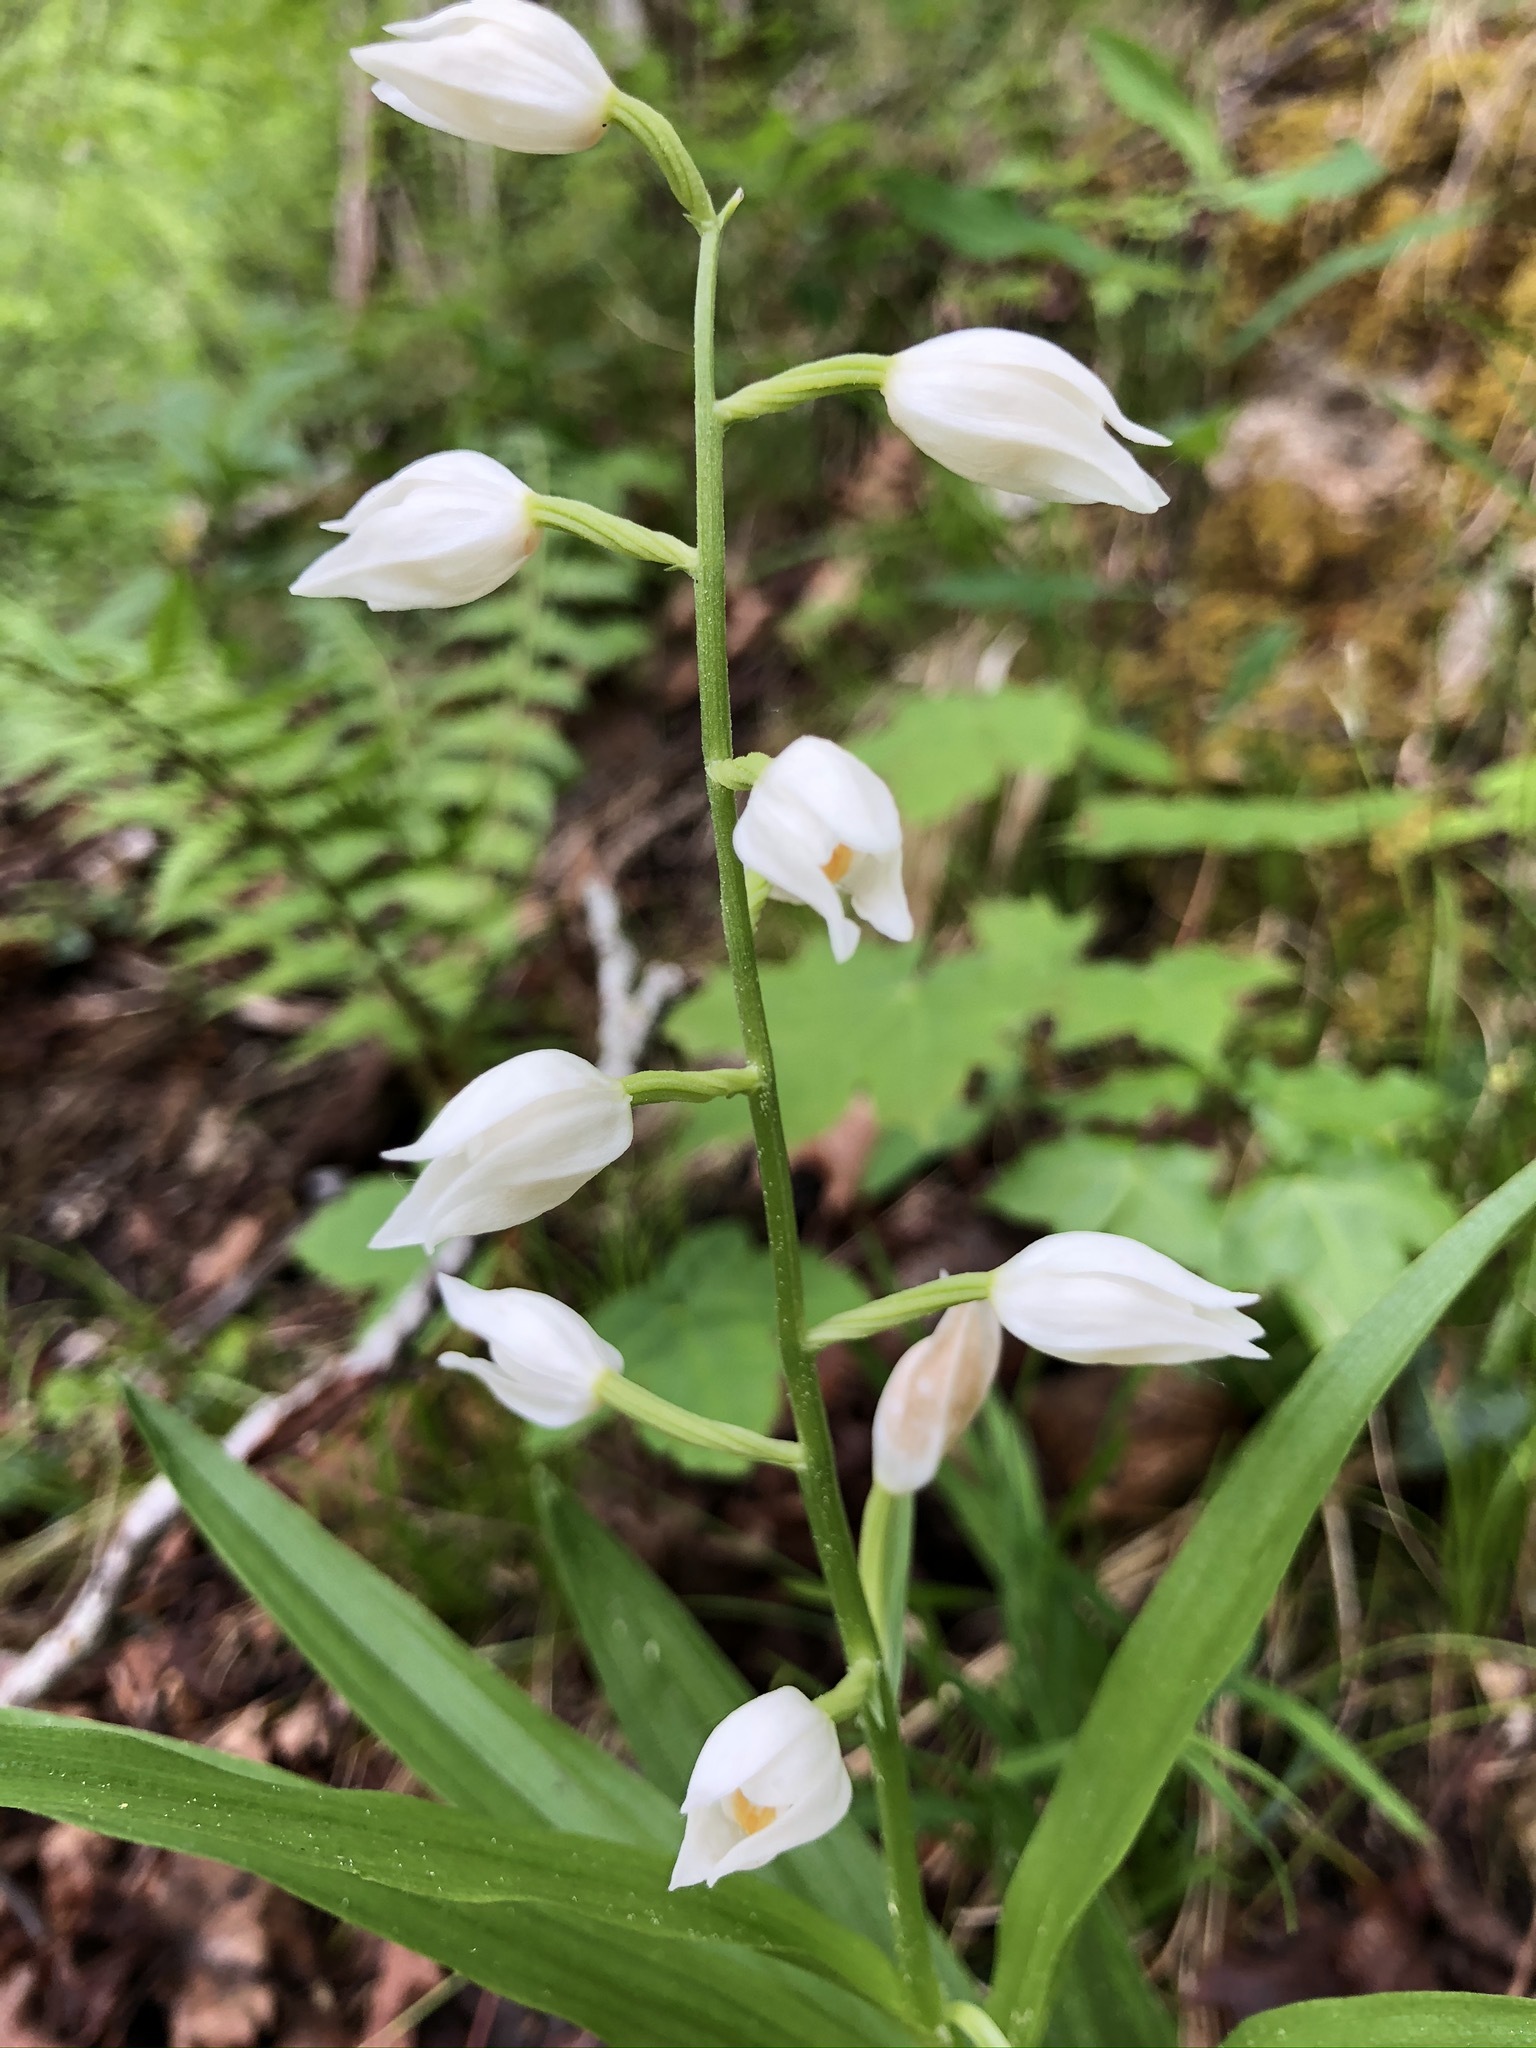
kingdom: Plantae
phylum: Tracheophyta
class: Liliopsida
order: Asparagales
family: Orchidaceae
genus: Cephalanthera
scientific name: Cephalanthera longifolia
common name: Narrow-leaved helleborine
